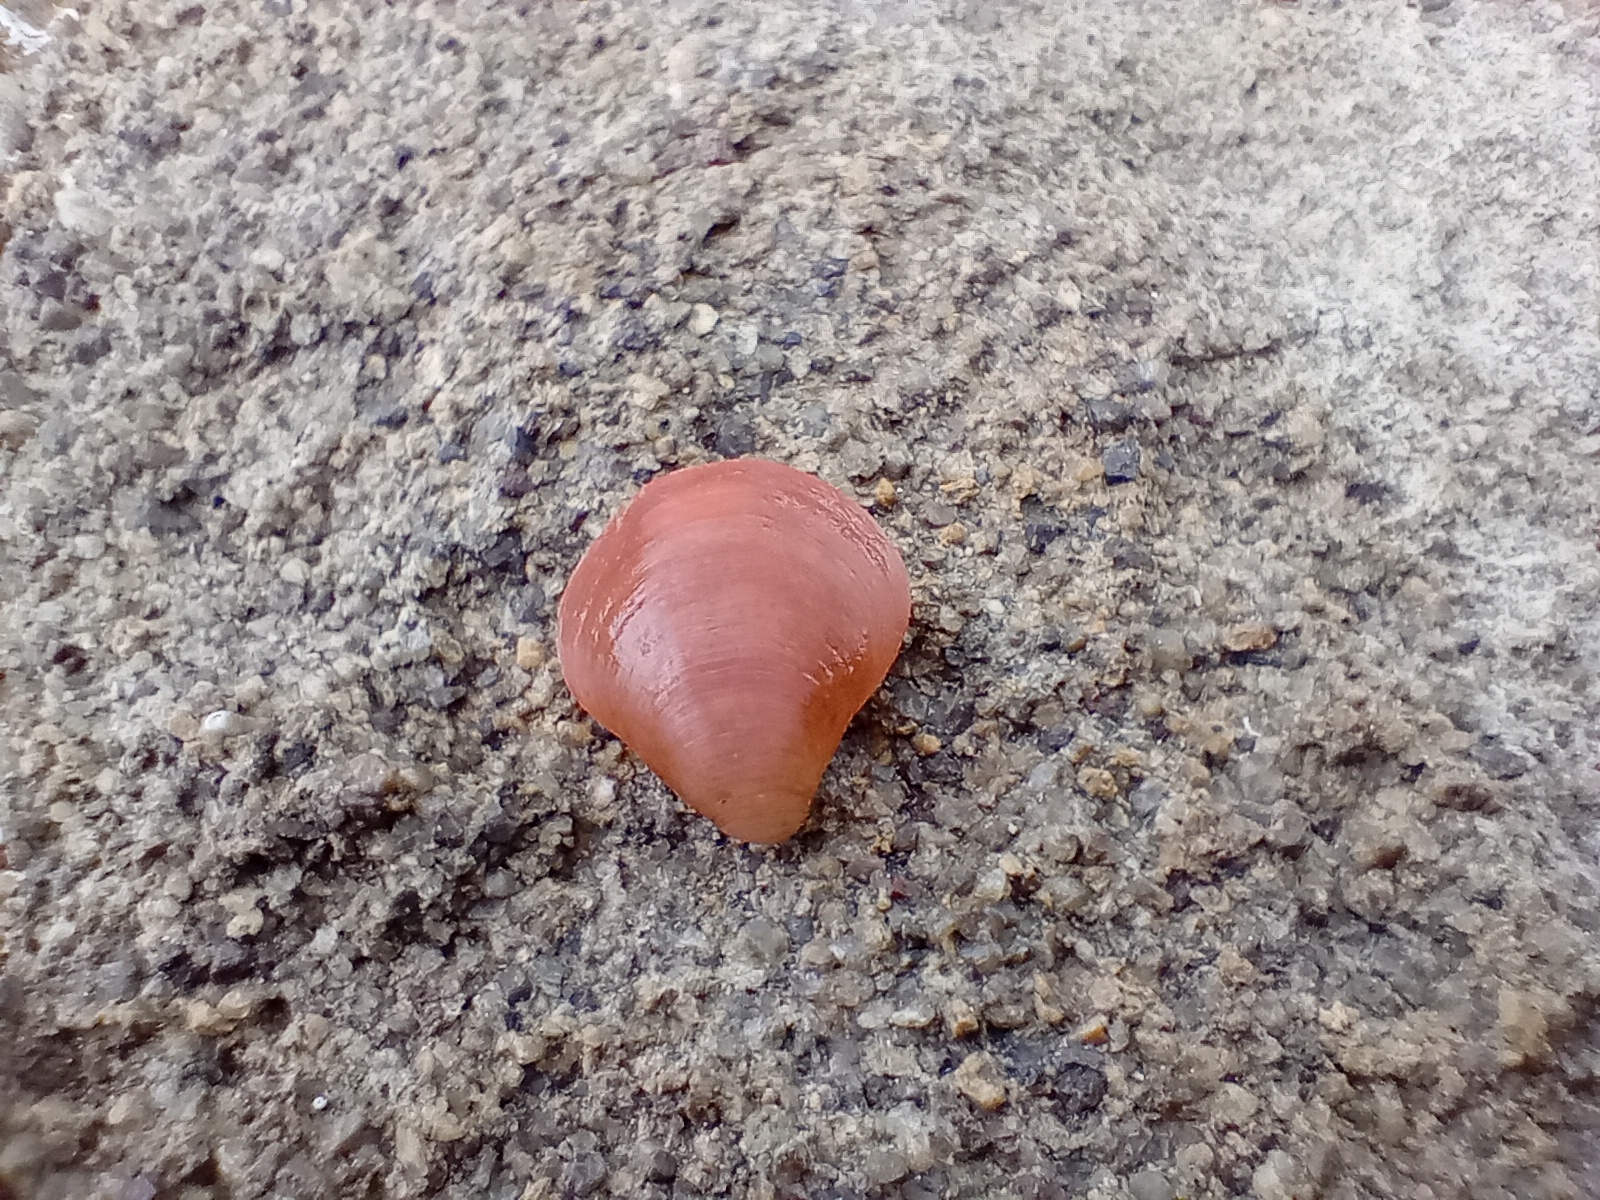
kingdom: Animalia
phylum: Brachiopoda
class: Rhynchonellata
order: Terebratulida
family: Terebratellidae
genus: Calloria
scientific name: Calloria inconspicua
